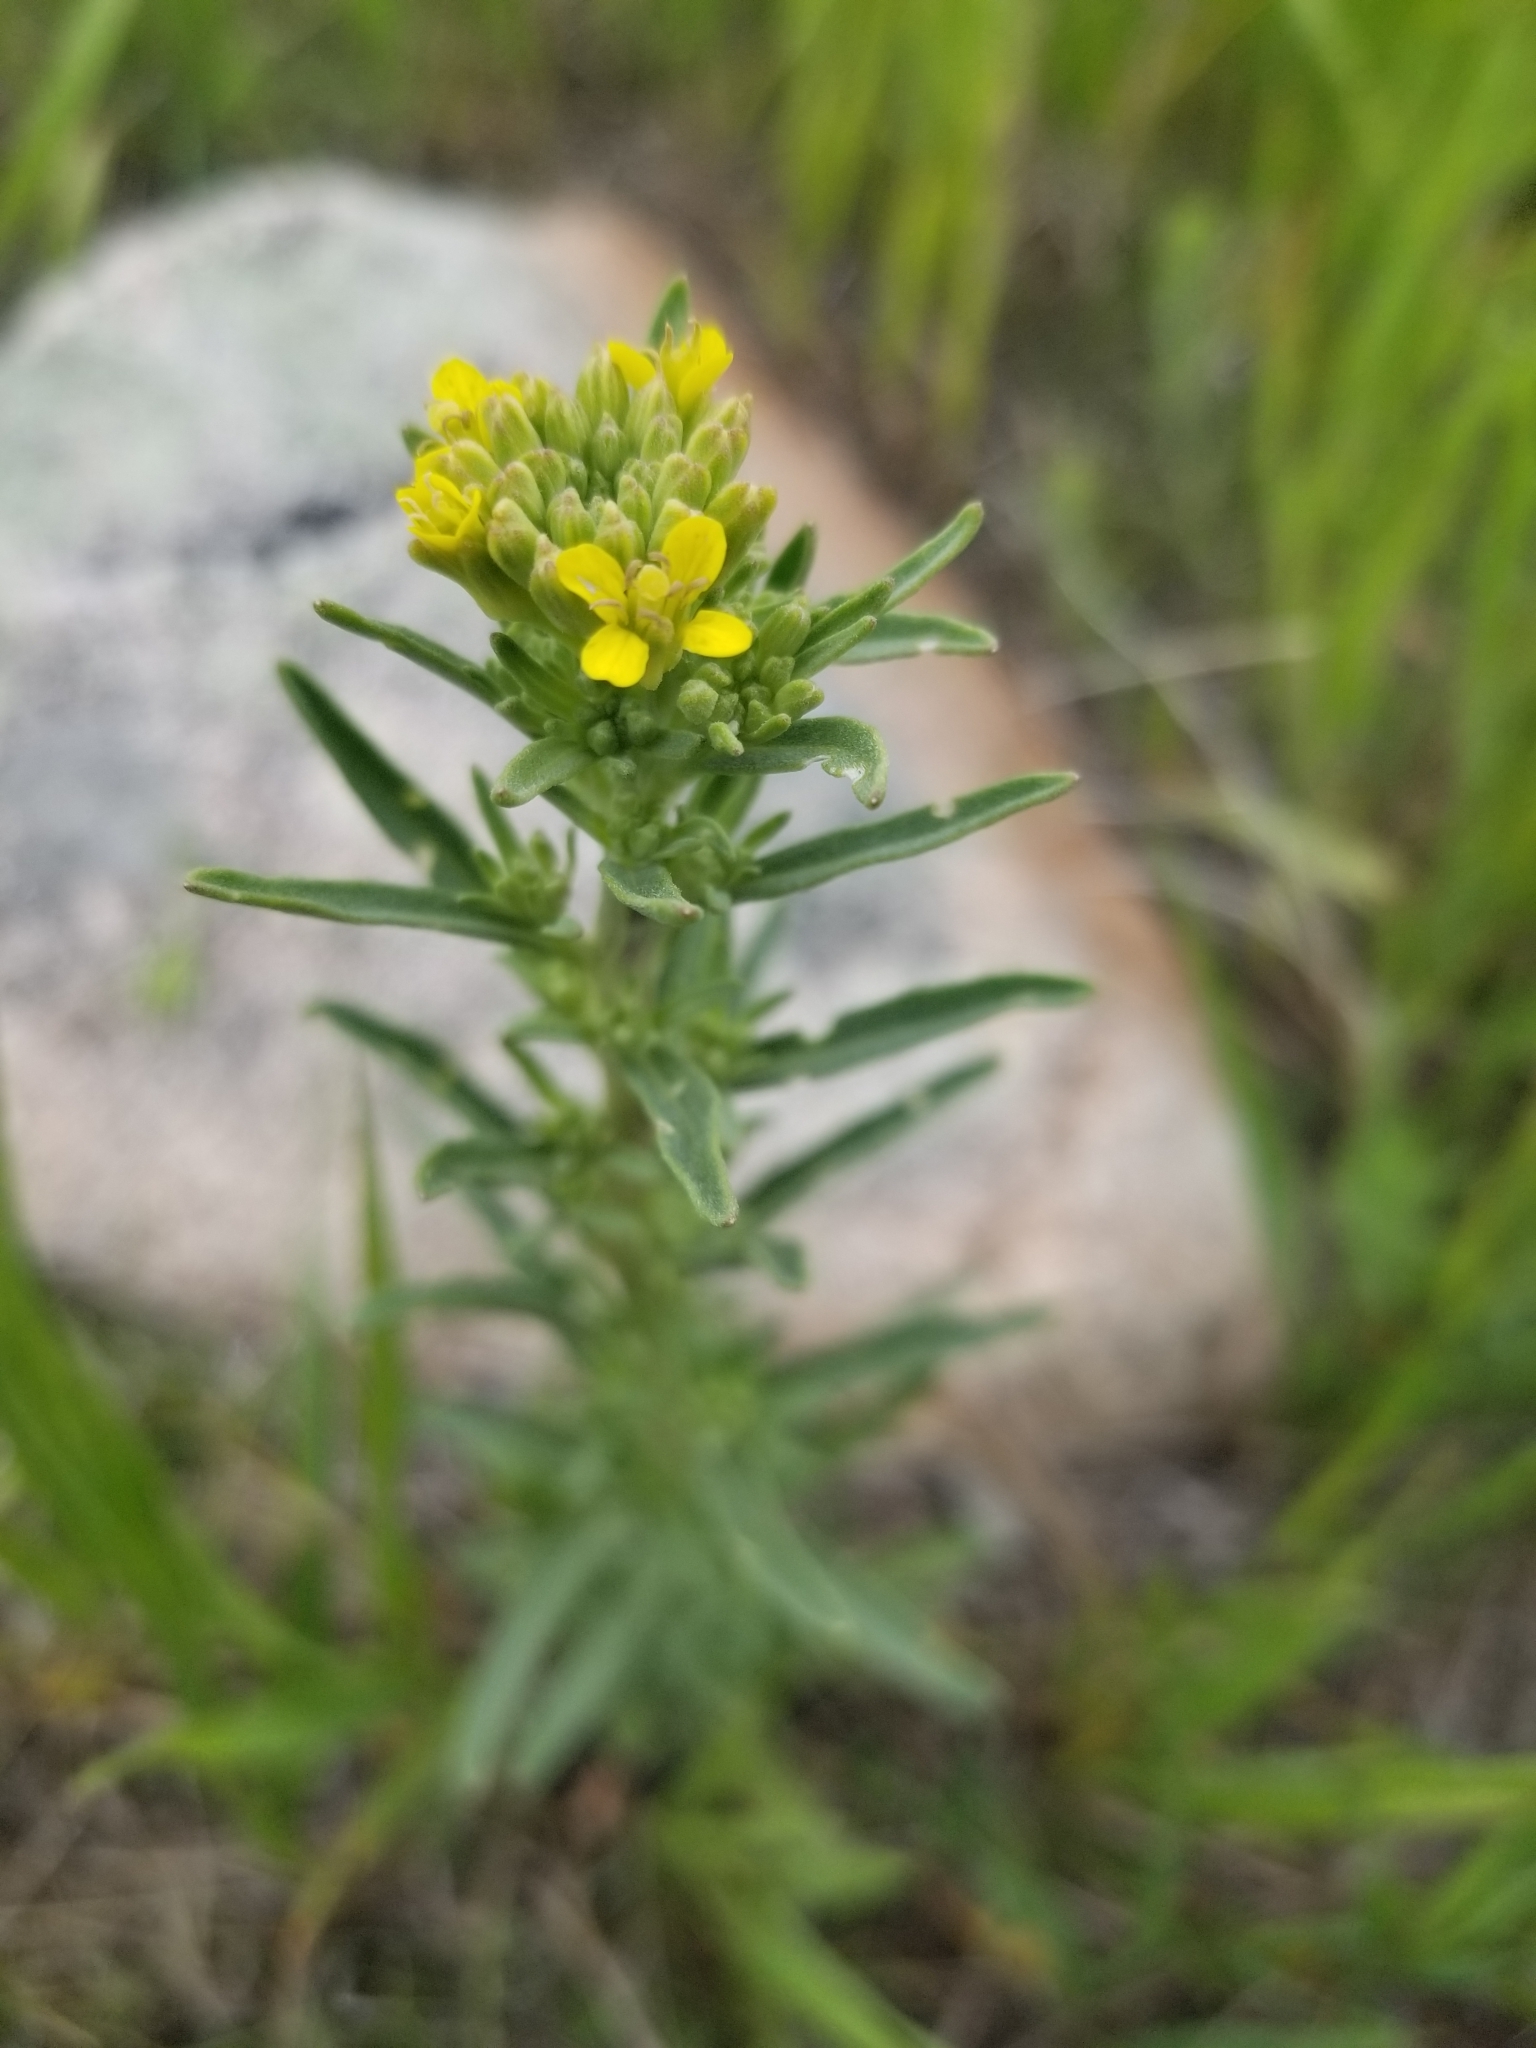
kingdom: Plantae
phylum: Tracheophyta
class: Magnoliopsida
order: Brassicales
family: Brassicaceae
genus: Erysimum
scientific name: Erysimum cheiranthoides
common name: Treacle mustard
